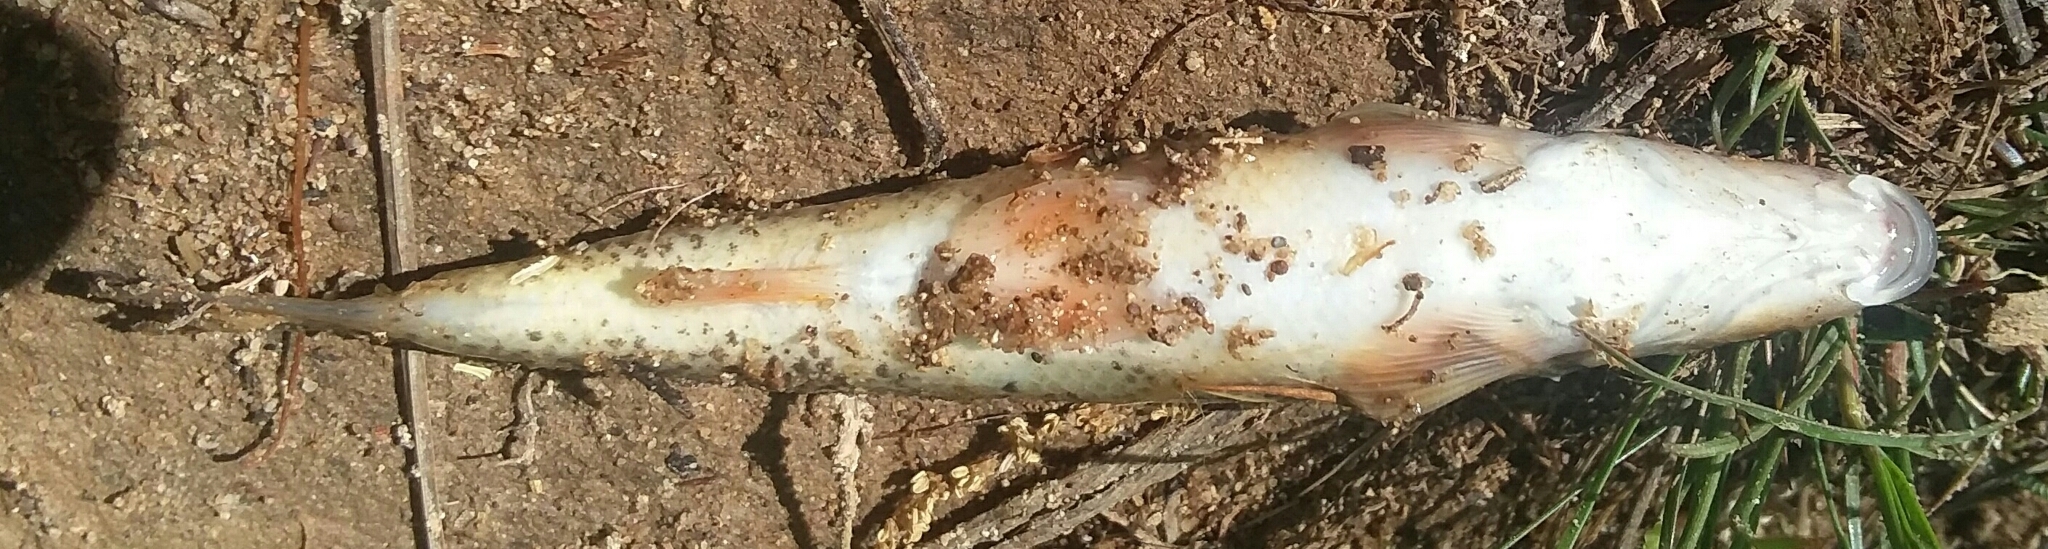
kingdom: Animalia
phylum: Chordata
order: Cypriniformes
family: Cyprinidae
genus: Campostoma
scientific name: Campostoma anomalum
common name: Central stoneroller
